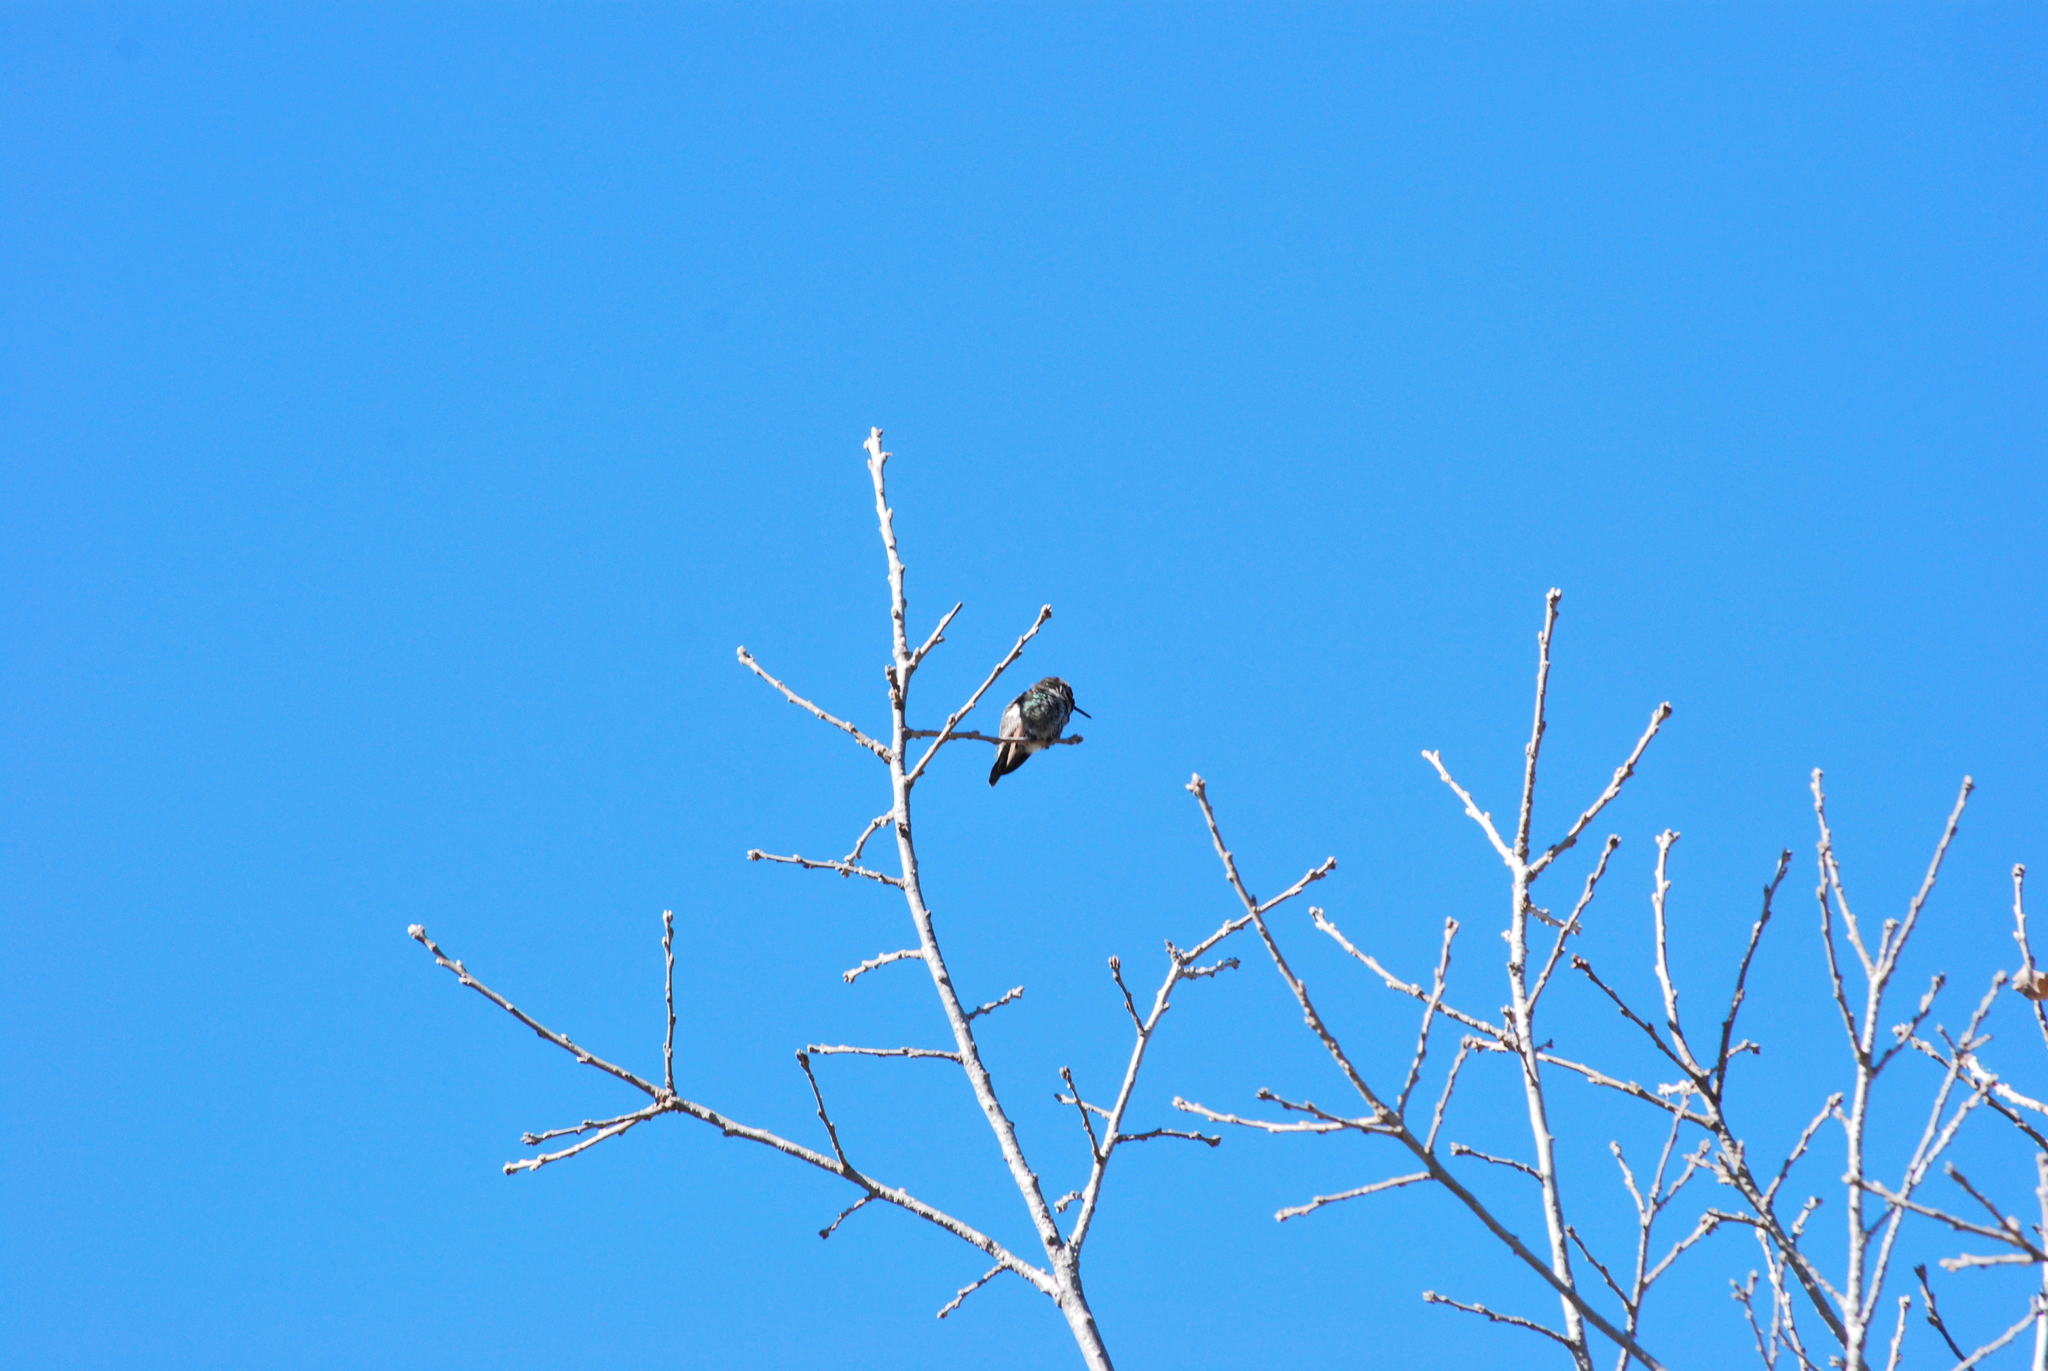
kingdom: Animalia
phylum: Chordata
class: Aves
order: Apodiformes
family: Trochilidae
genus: Calypte
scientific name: Calypte anna
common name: Anna's hummingbird
